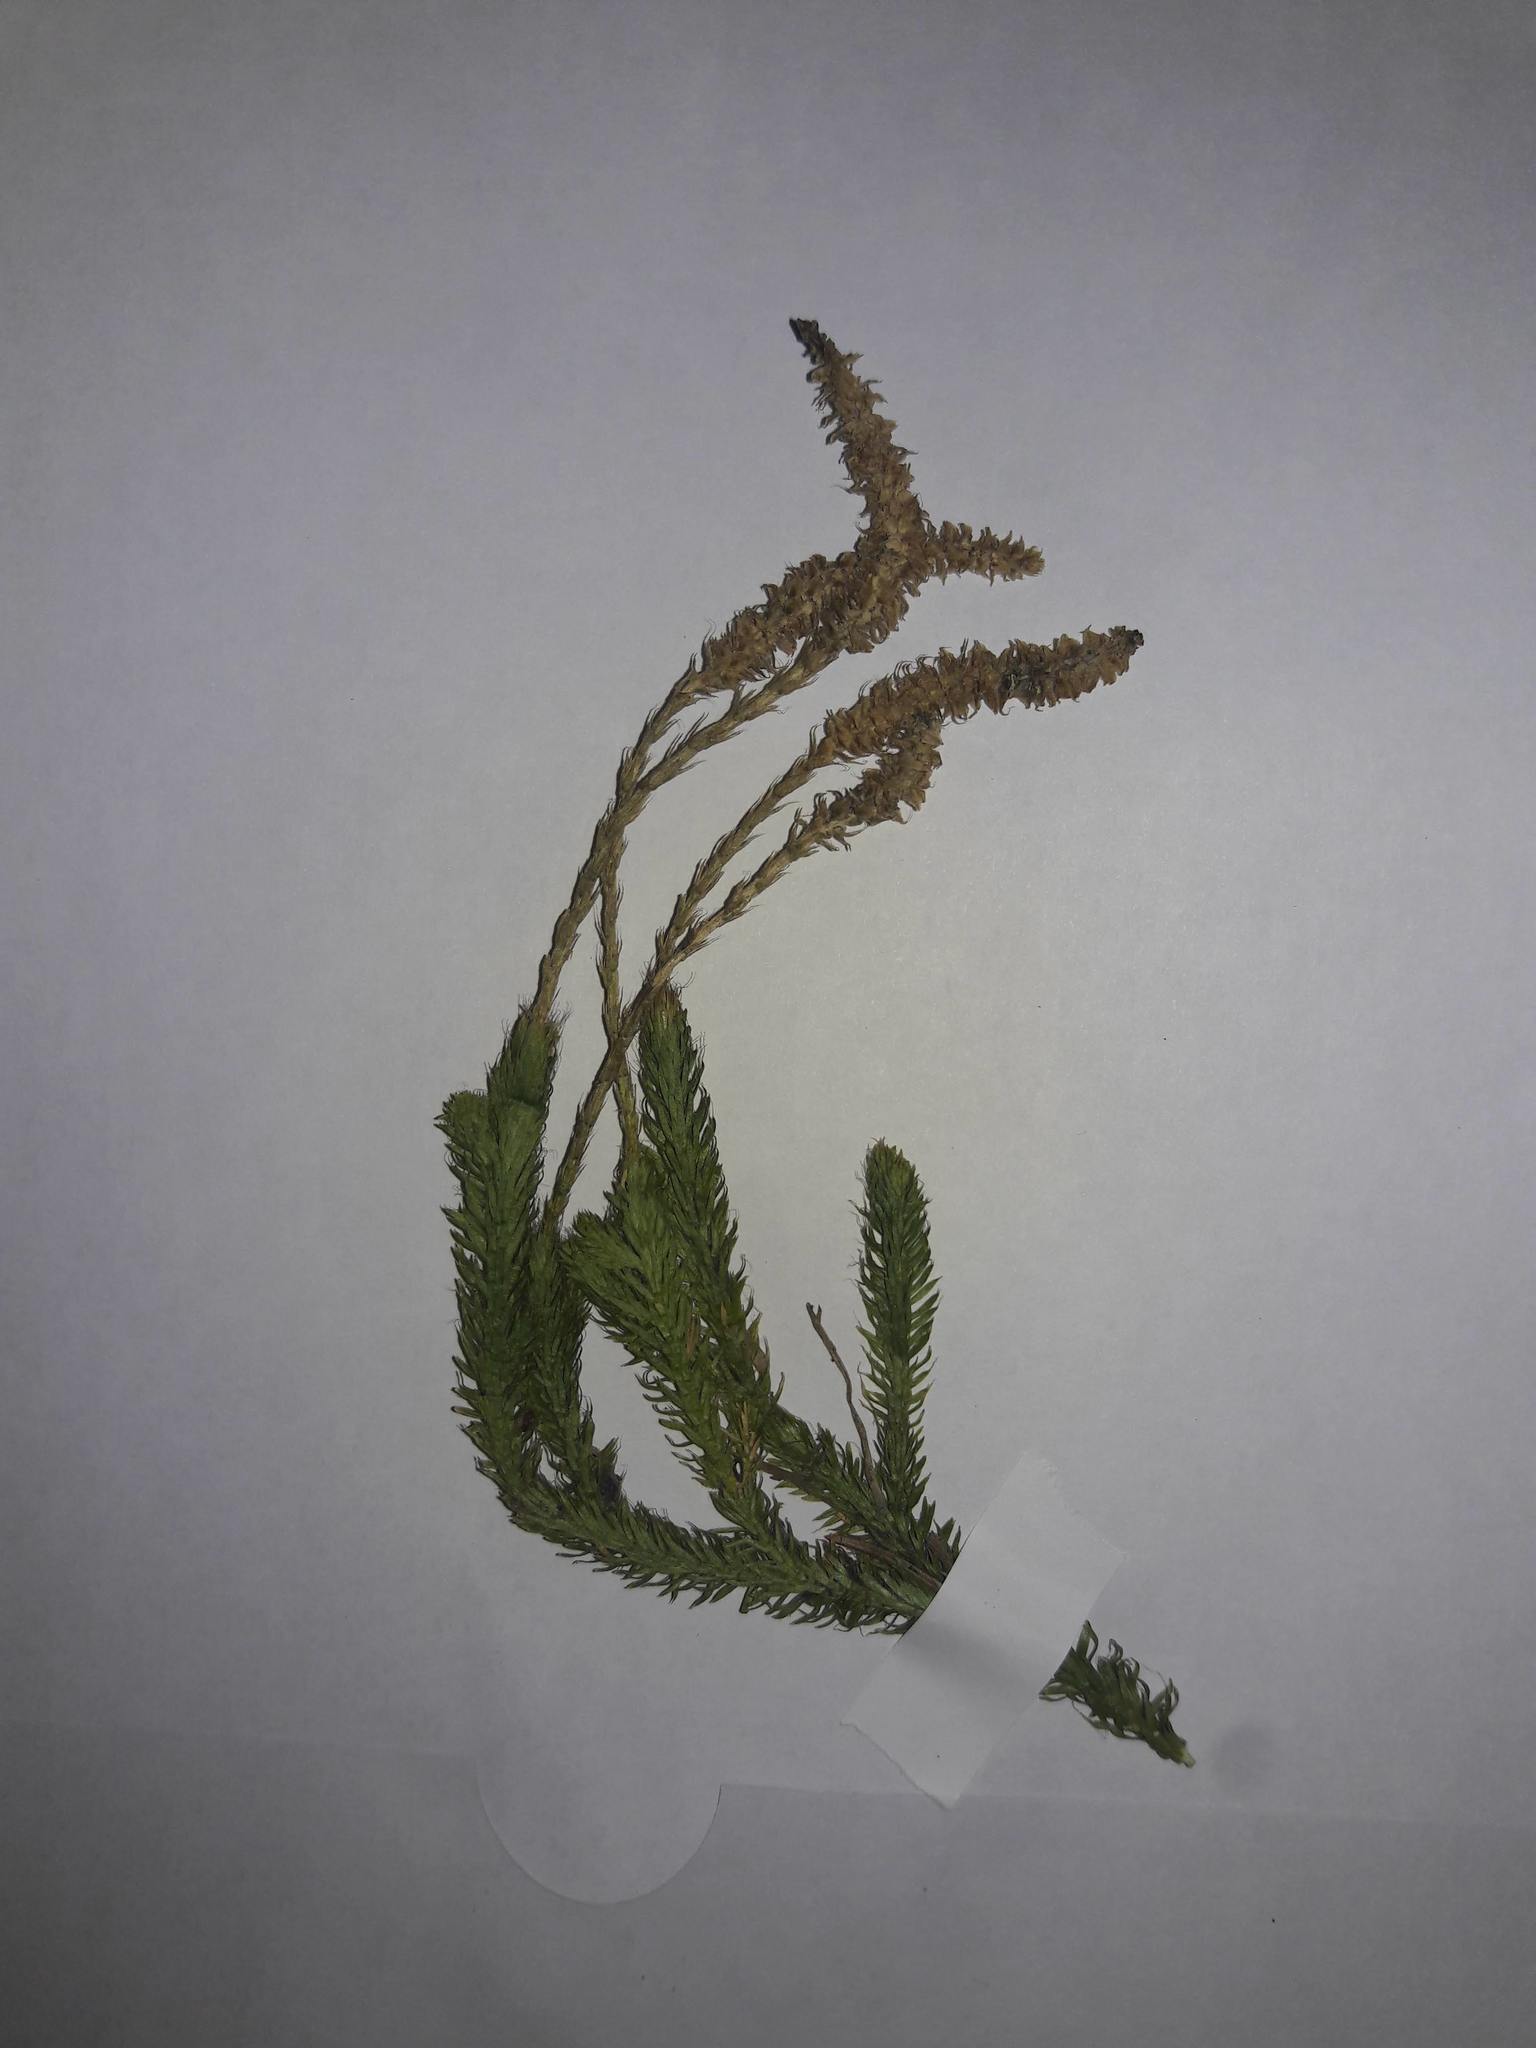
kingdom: Plantae
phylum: Tracheophyta
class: Lycopodiopsida
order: Lycopodiales
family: Lycopodiaceae
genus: Lycopodium
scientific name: Lycopodium clavatum
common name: Stag's-horn clubmoss
